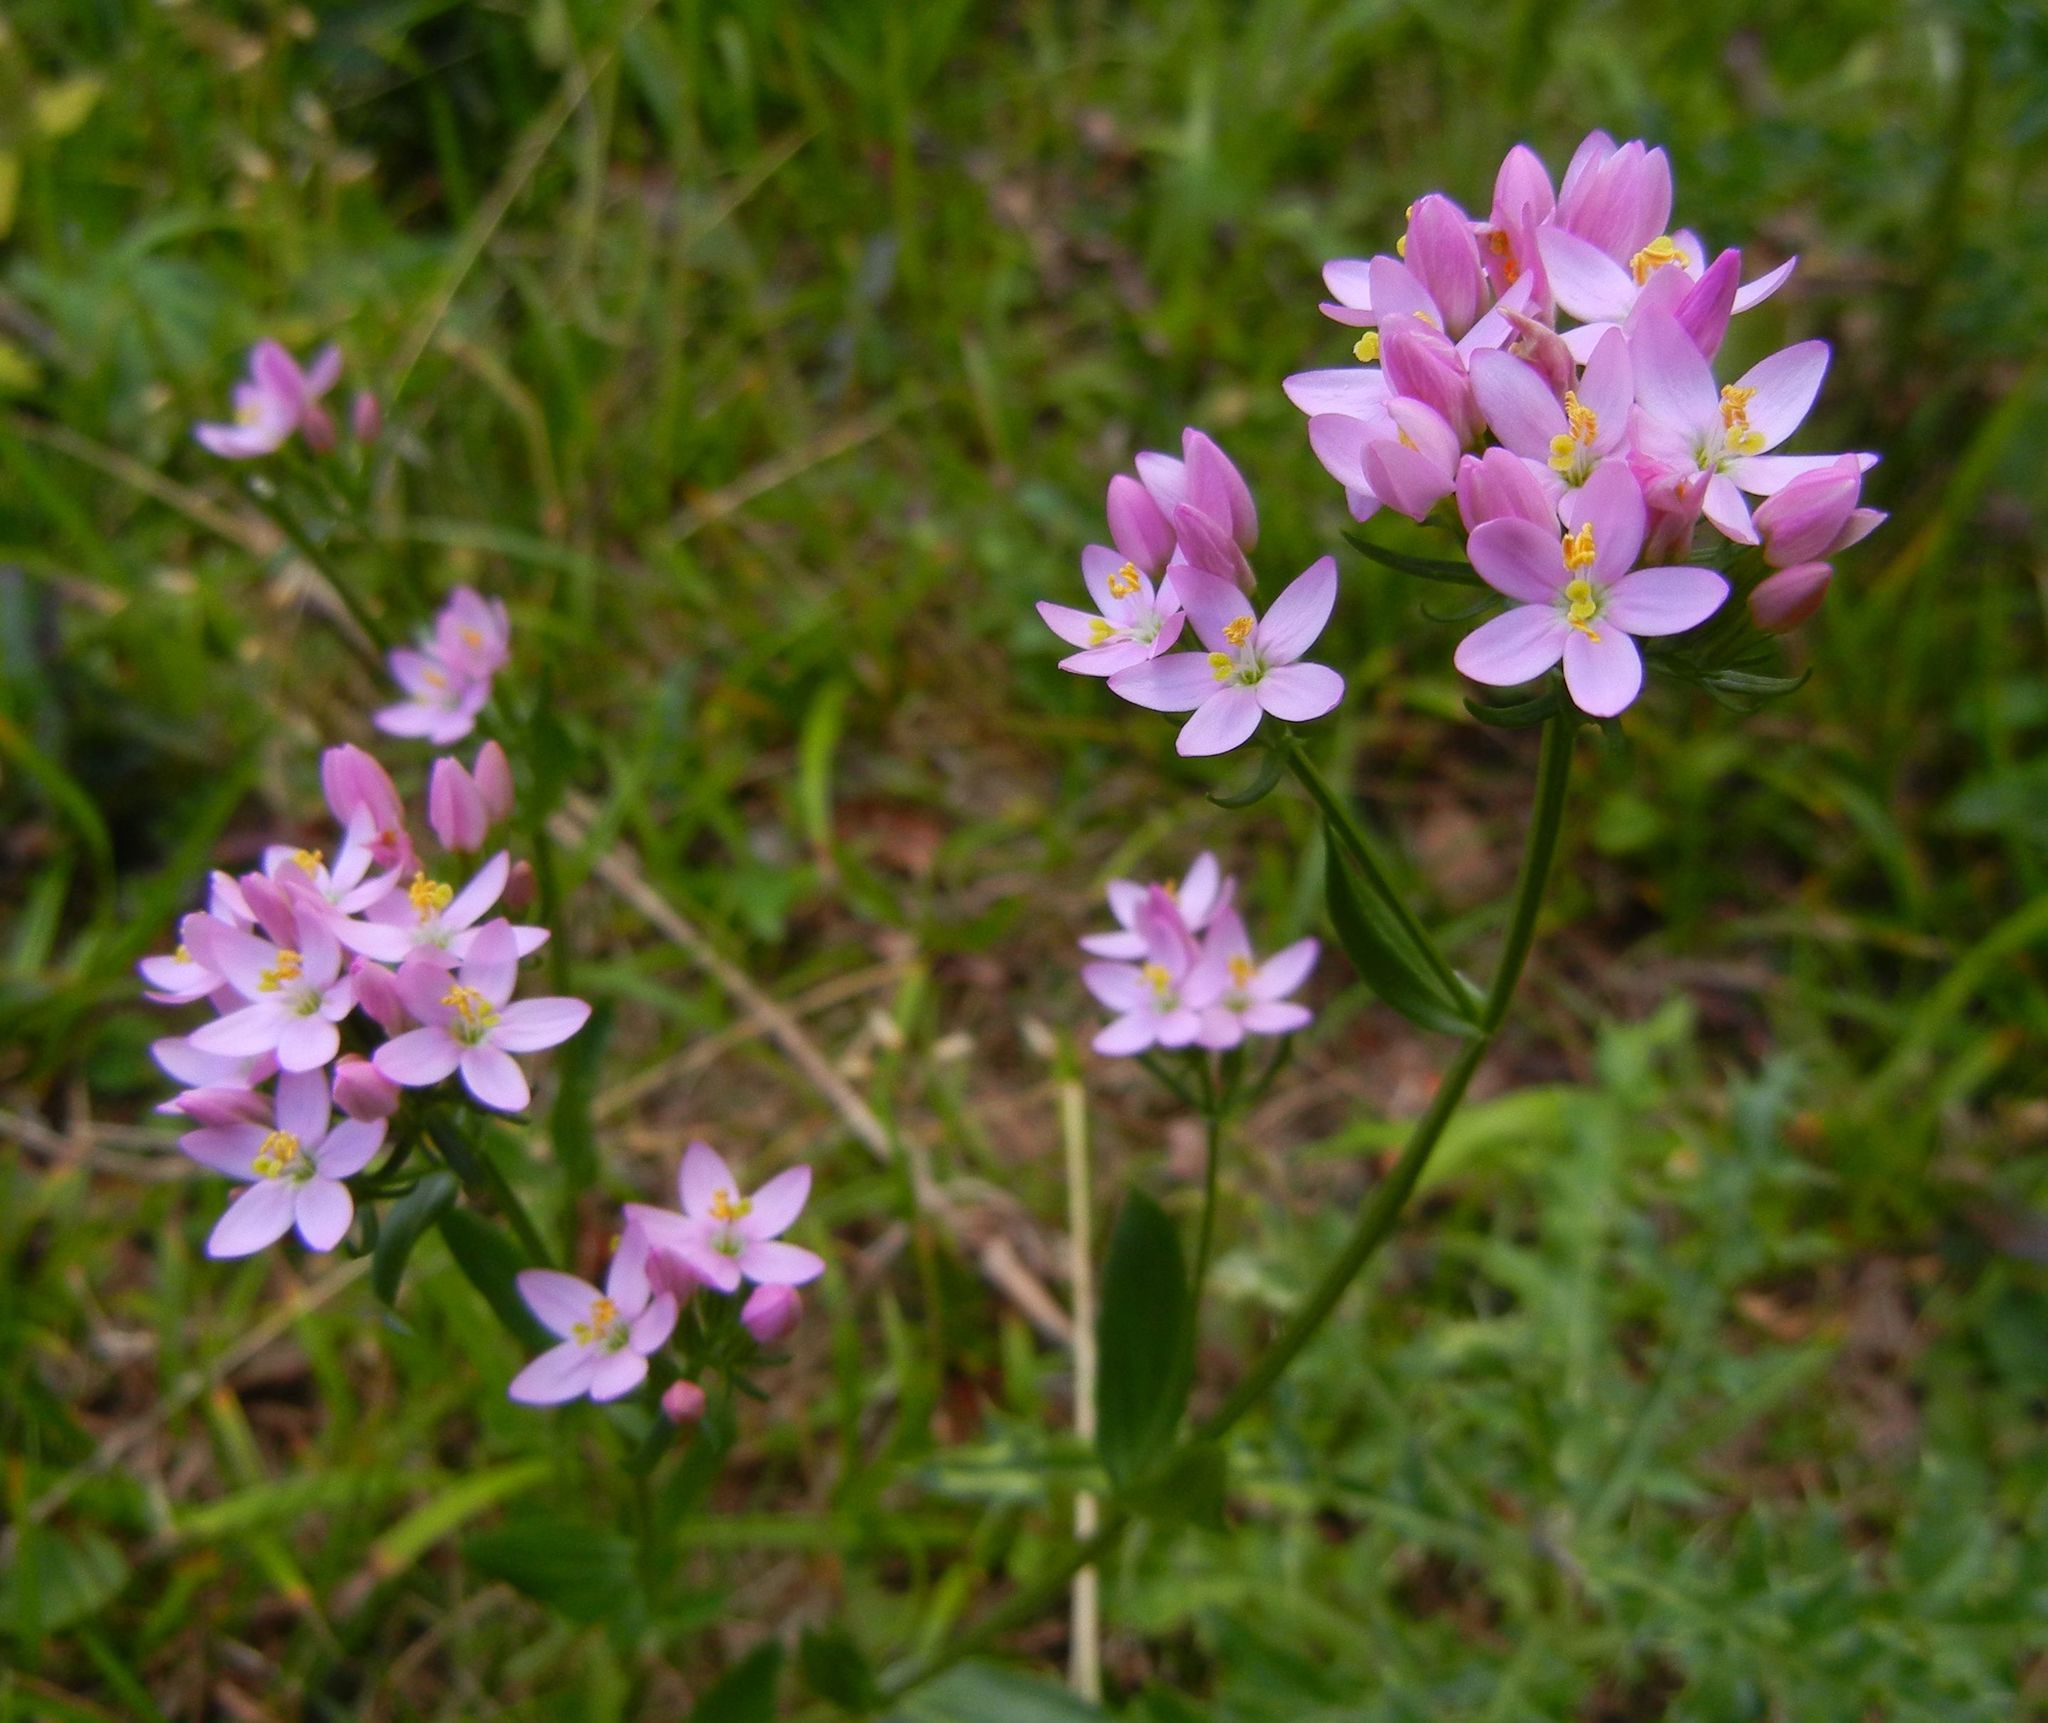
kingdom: Plantae
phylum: Tracheophyta
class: Magnoliopsida
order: Gentianales
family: Gentianaceae
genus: Centaurium
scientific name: Centaurium erythraea
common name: Common centaury
